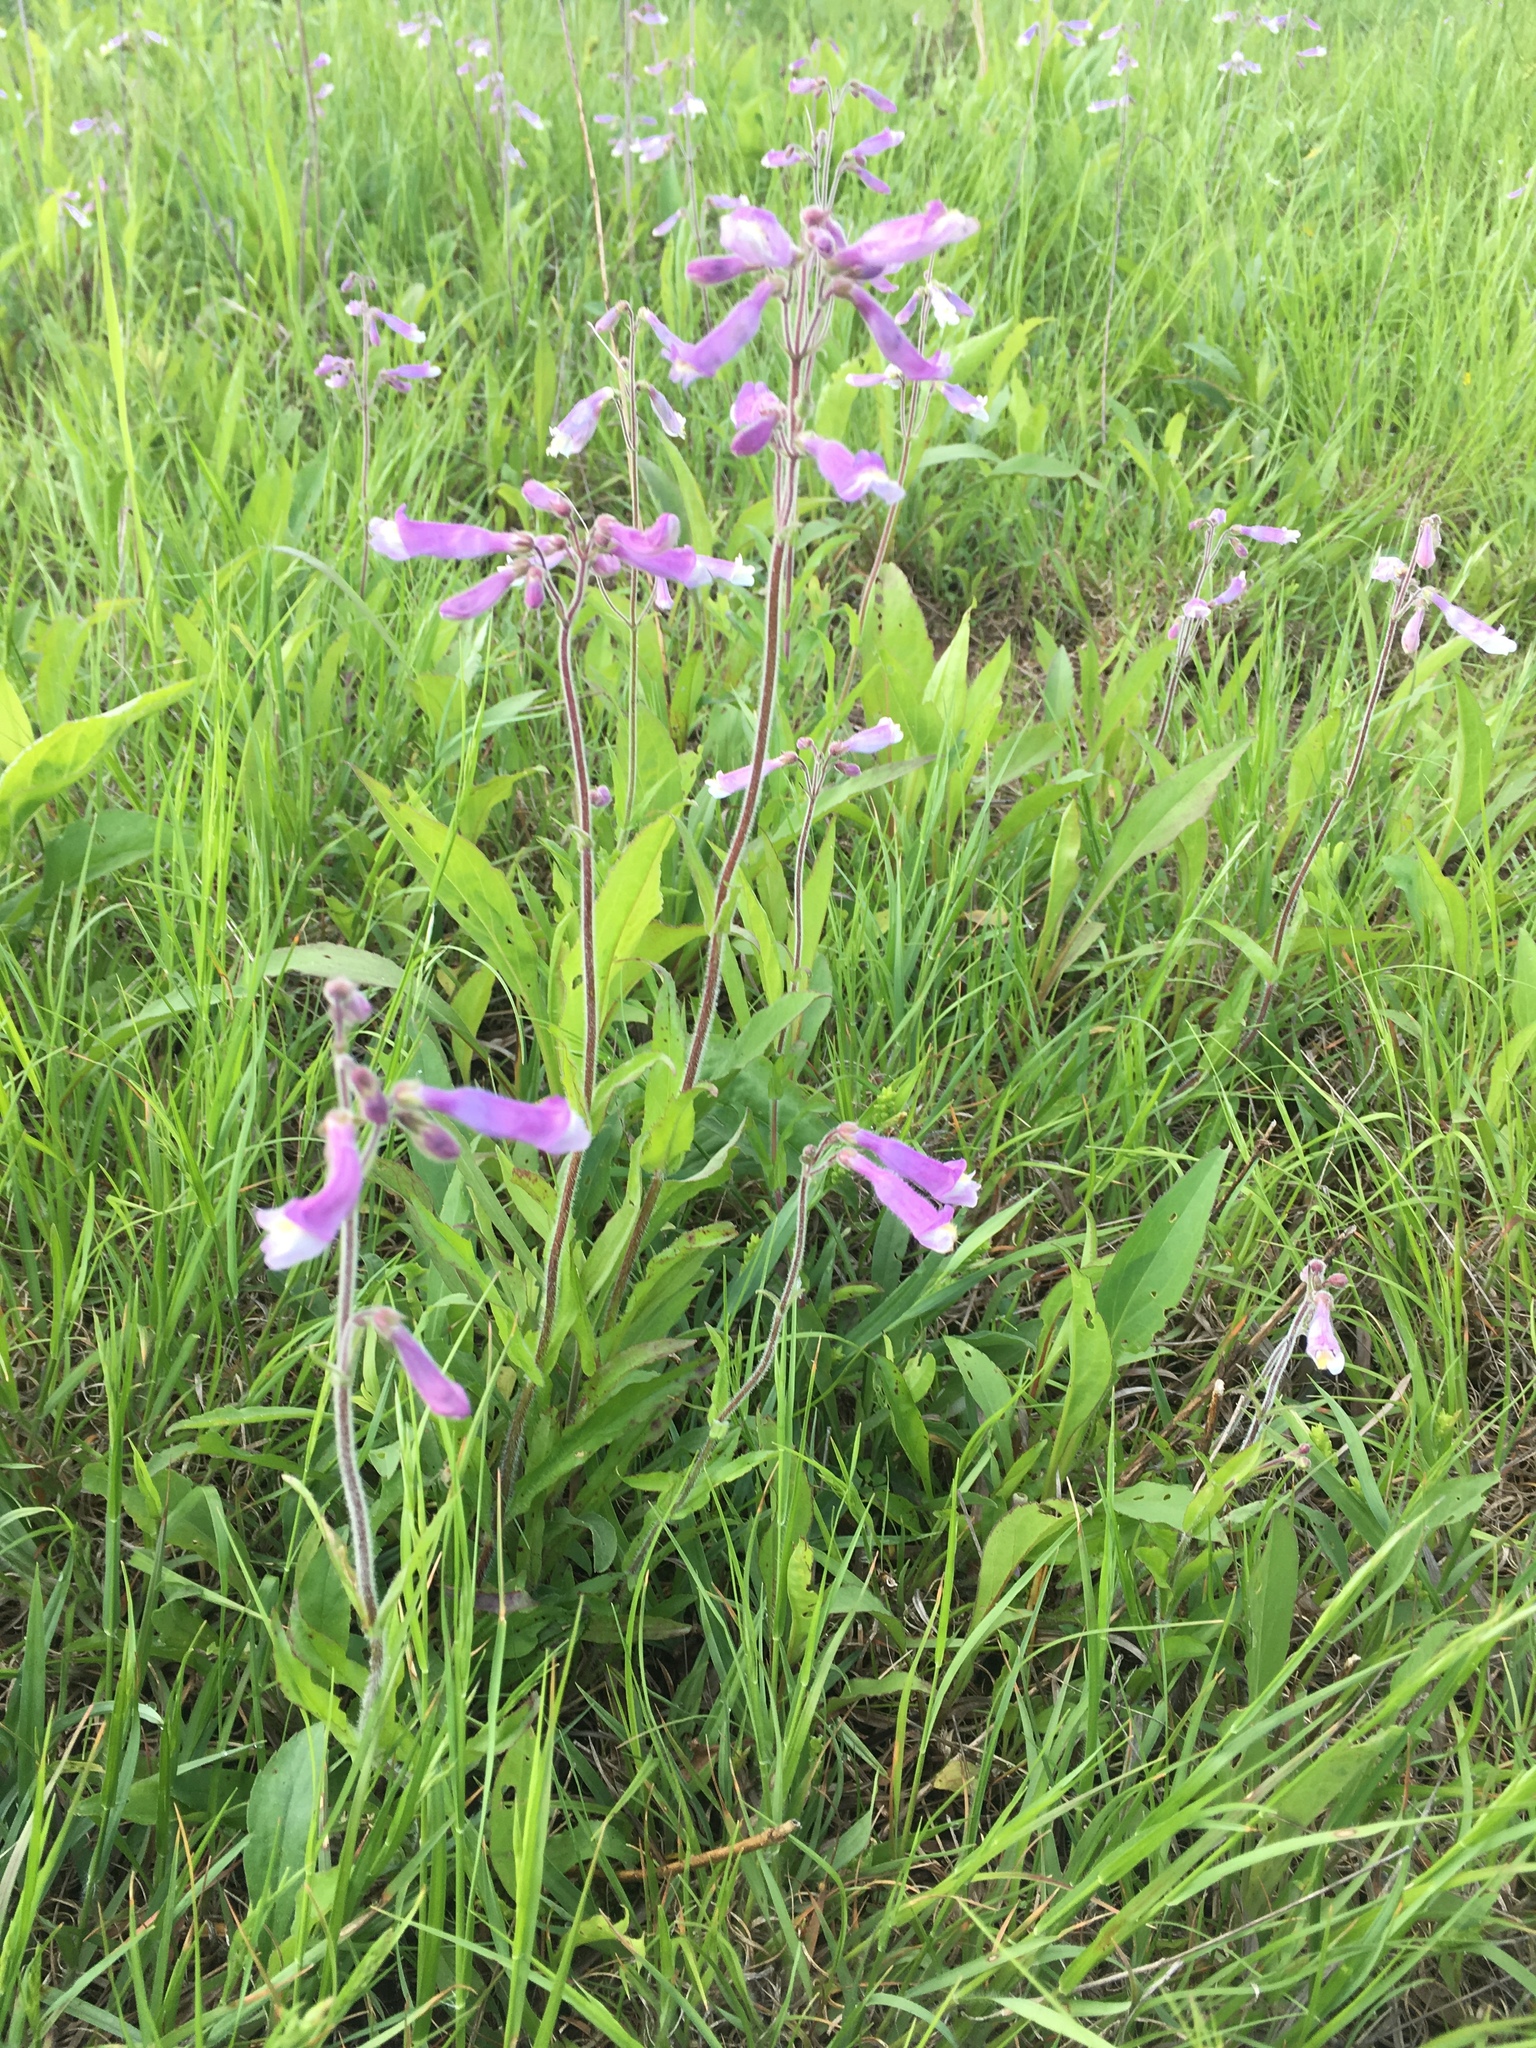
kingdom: Plantae
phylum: Tracheophyta
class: Magnoliopsida
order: Lamiales
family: Plantaginaceae
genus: Penstemon
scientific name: Penstemon hirsutus
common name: Hairy beardtongue
